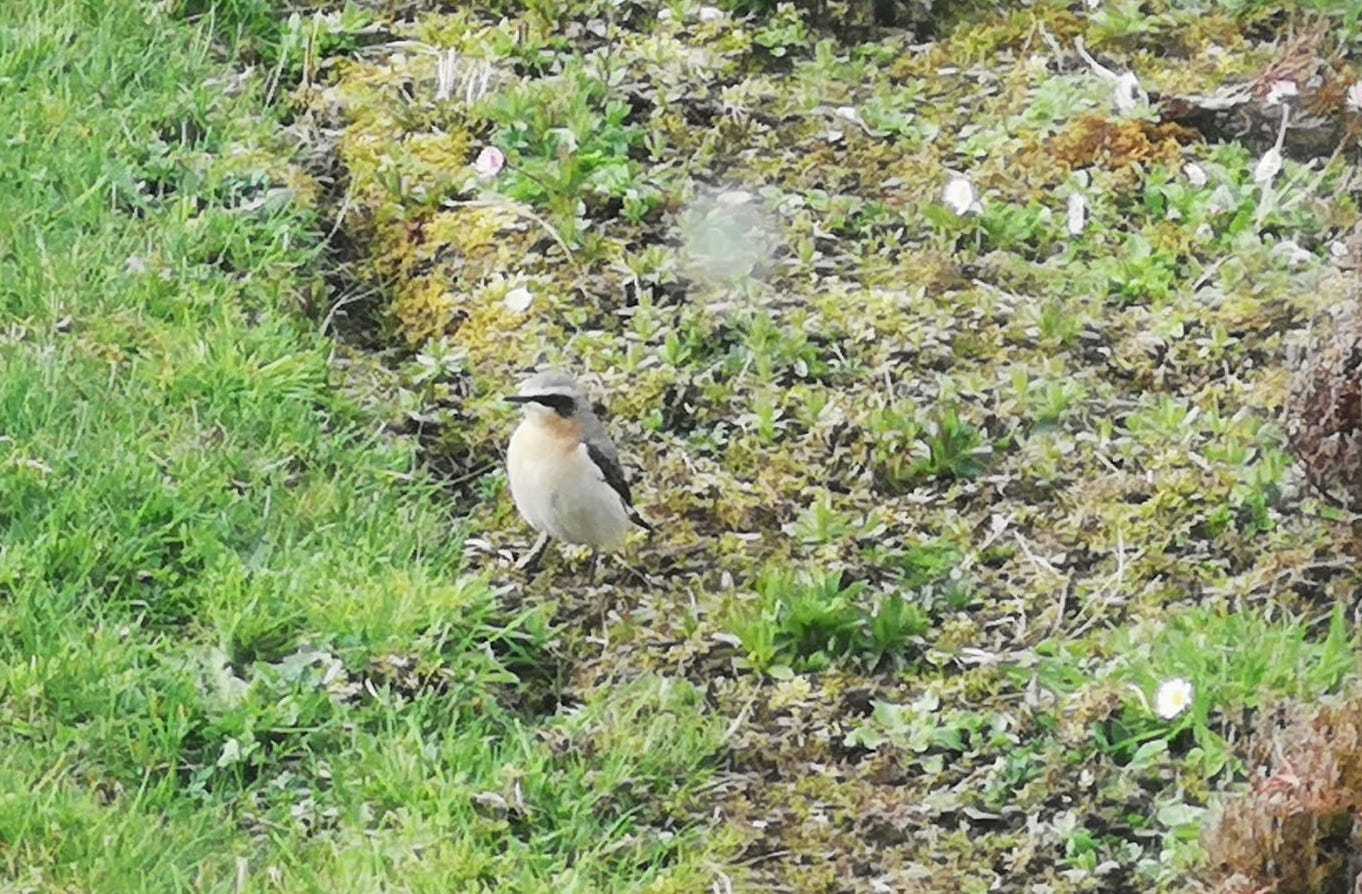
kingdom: Animalia
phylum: Chordata
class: Aves
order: Passeriformes
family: Muscicapidae
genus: Oenanthe
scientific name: Oenanthe oenanthe
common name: Northern wheatear
